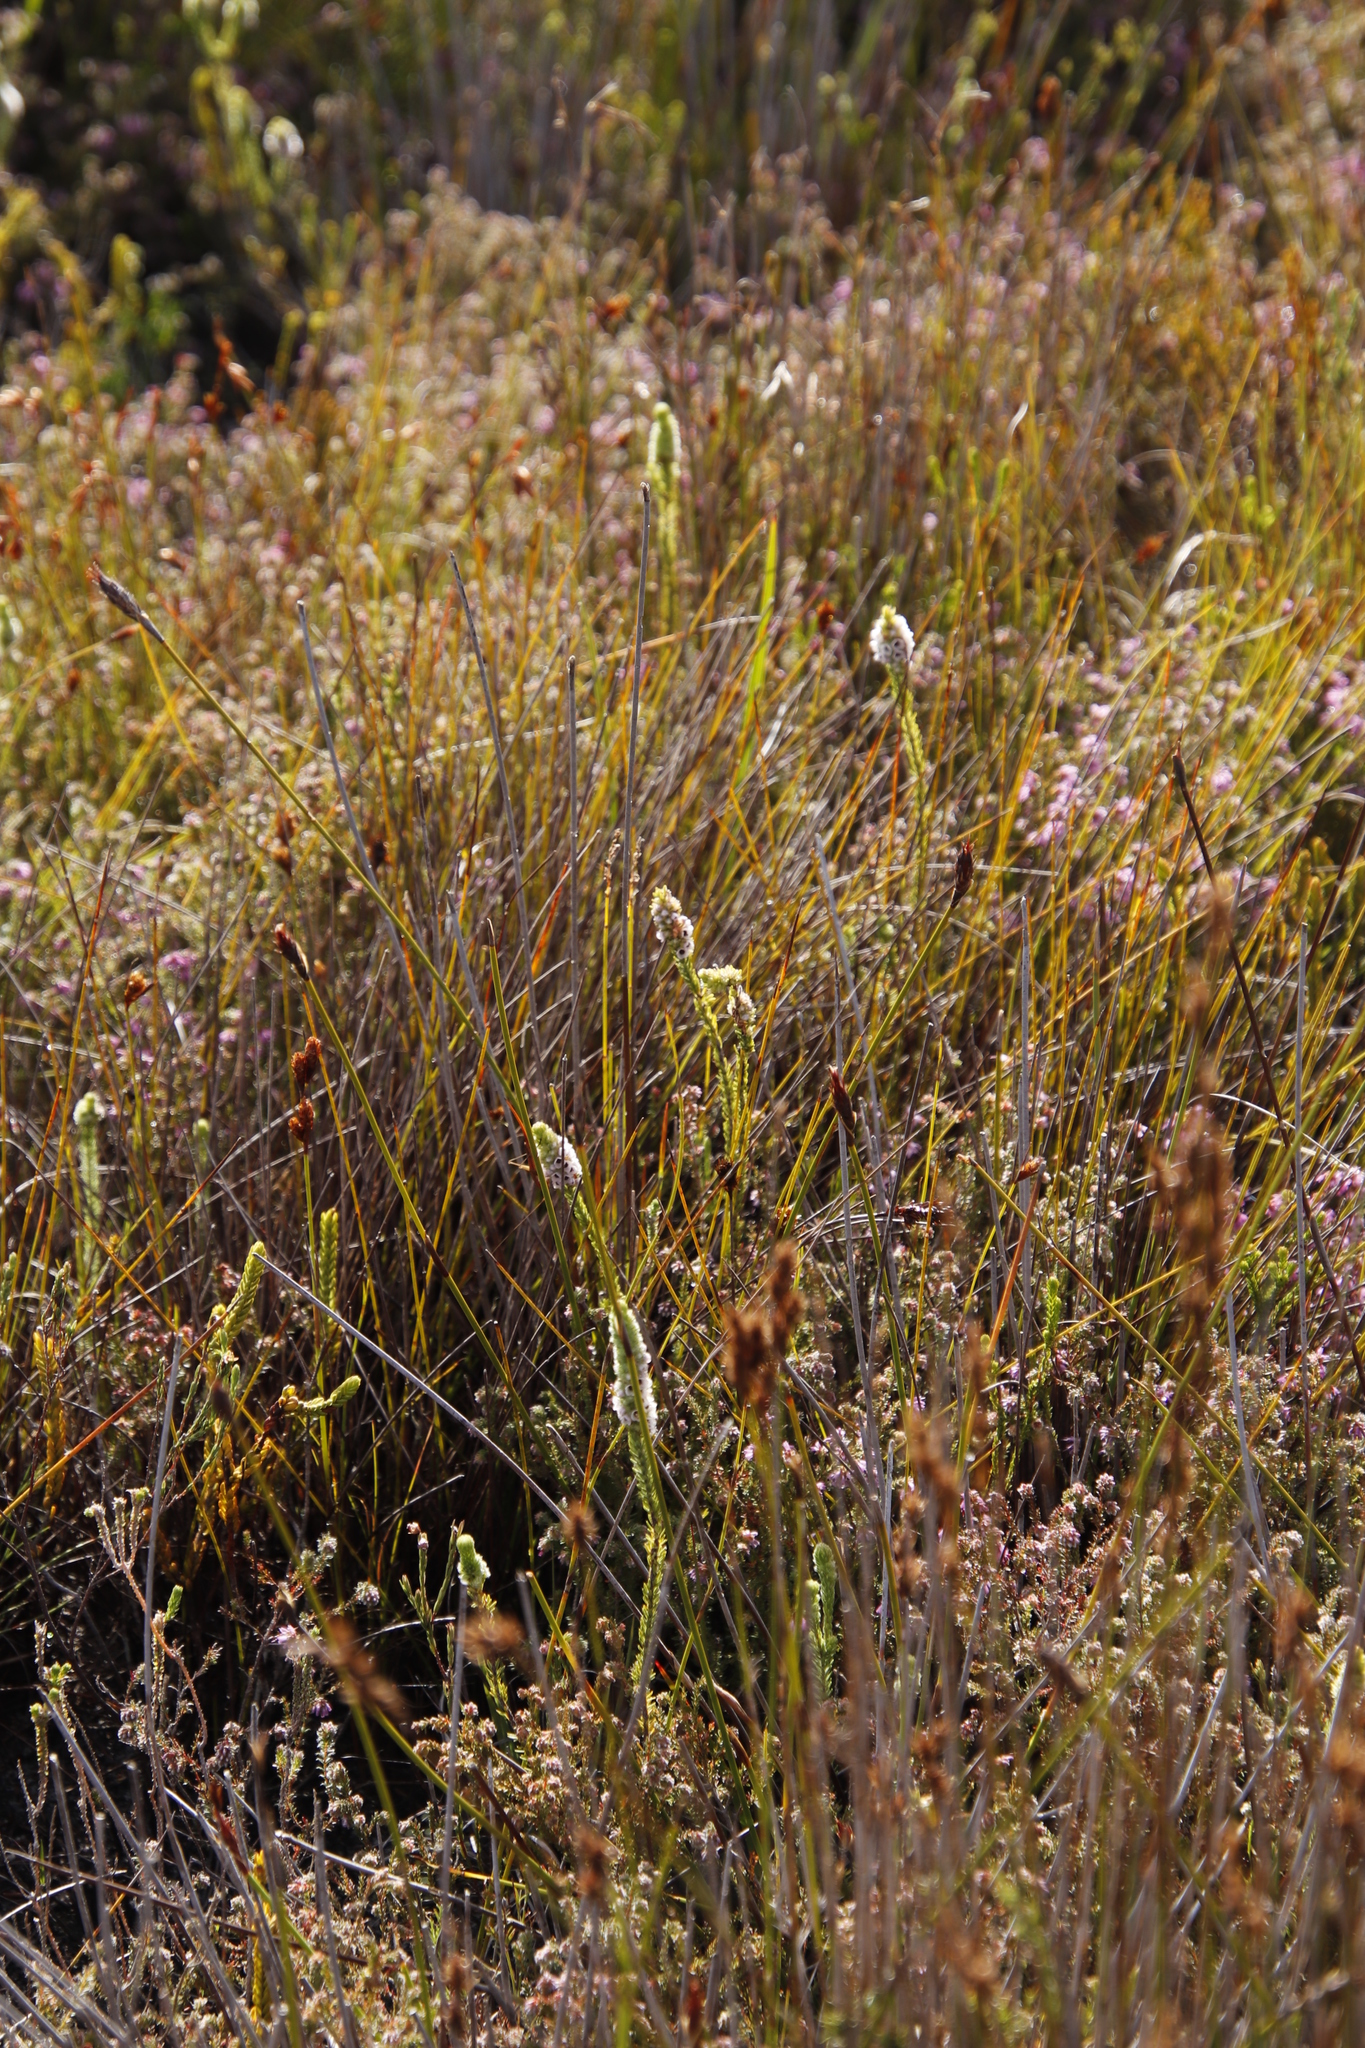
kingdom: Plantae
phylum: Tracheophyta
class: Magnoliopsida
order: Ericales
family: Ericaceae
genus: Erica
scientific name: Erica pyxidiflora
